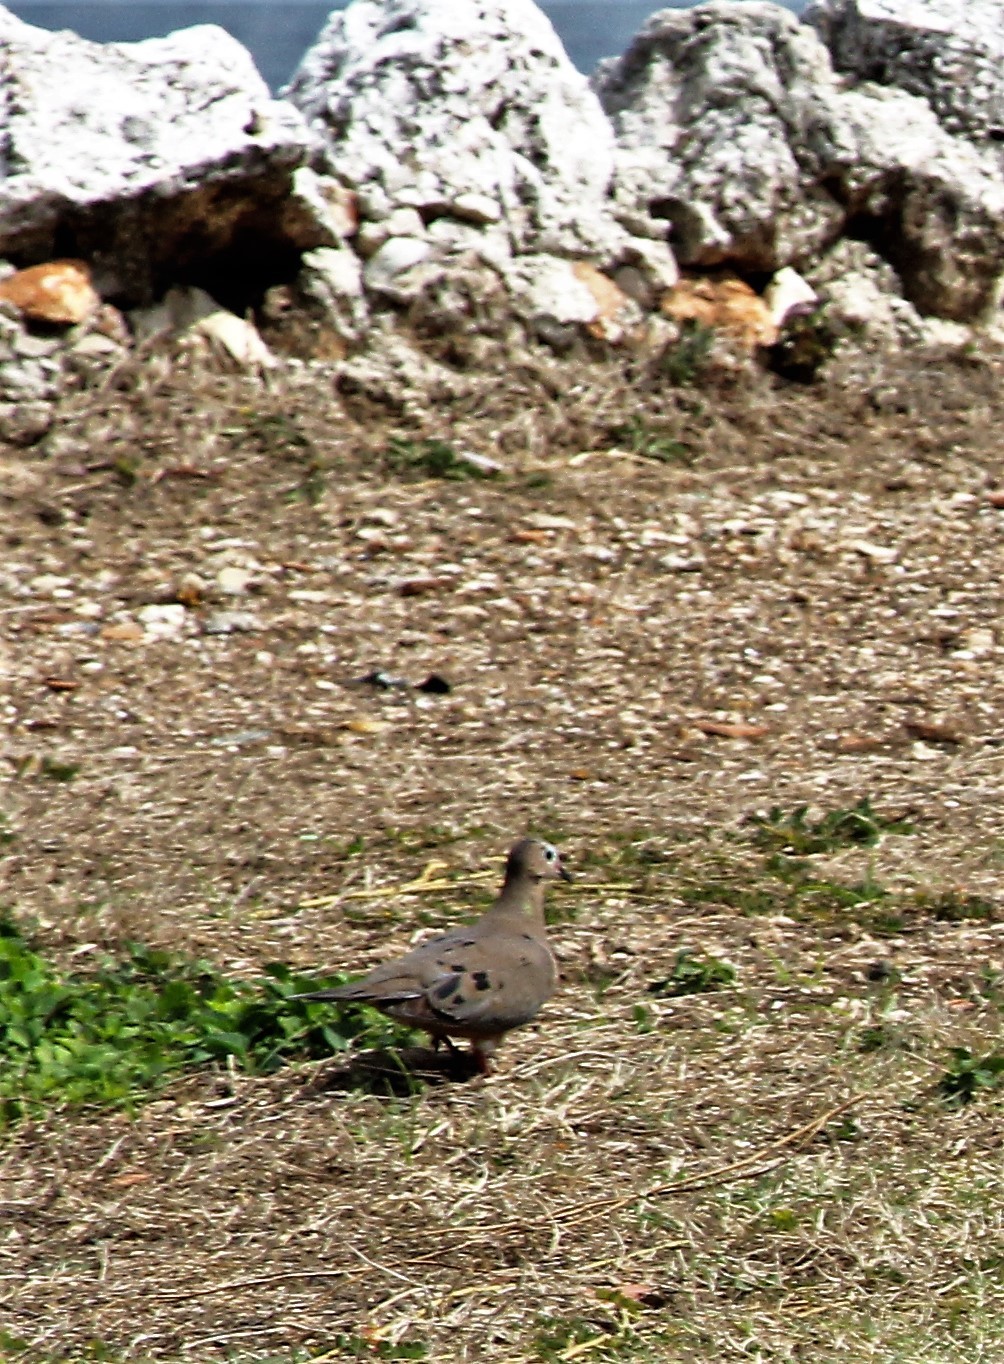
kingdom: Animalia
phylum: Chordata
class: Aves
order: Columbiformes
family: Columbidae
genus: Zenaida
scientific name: Zenaida macroura
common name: Mourning dove
